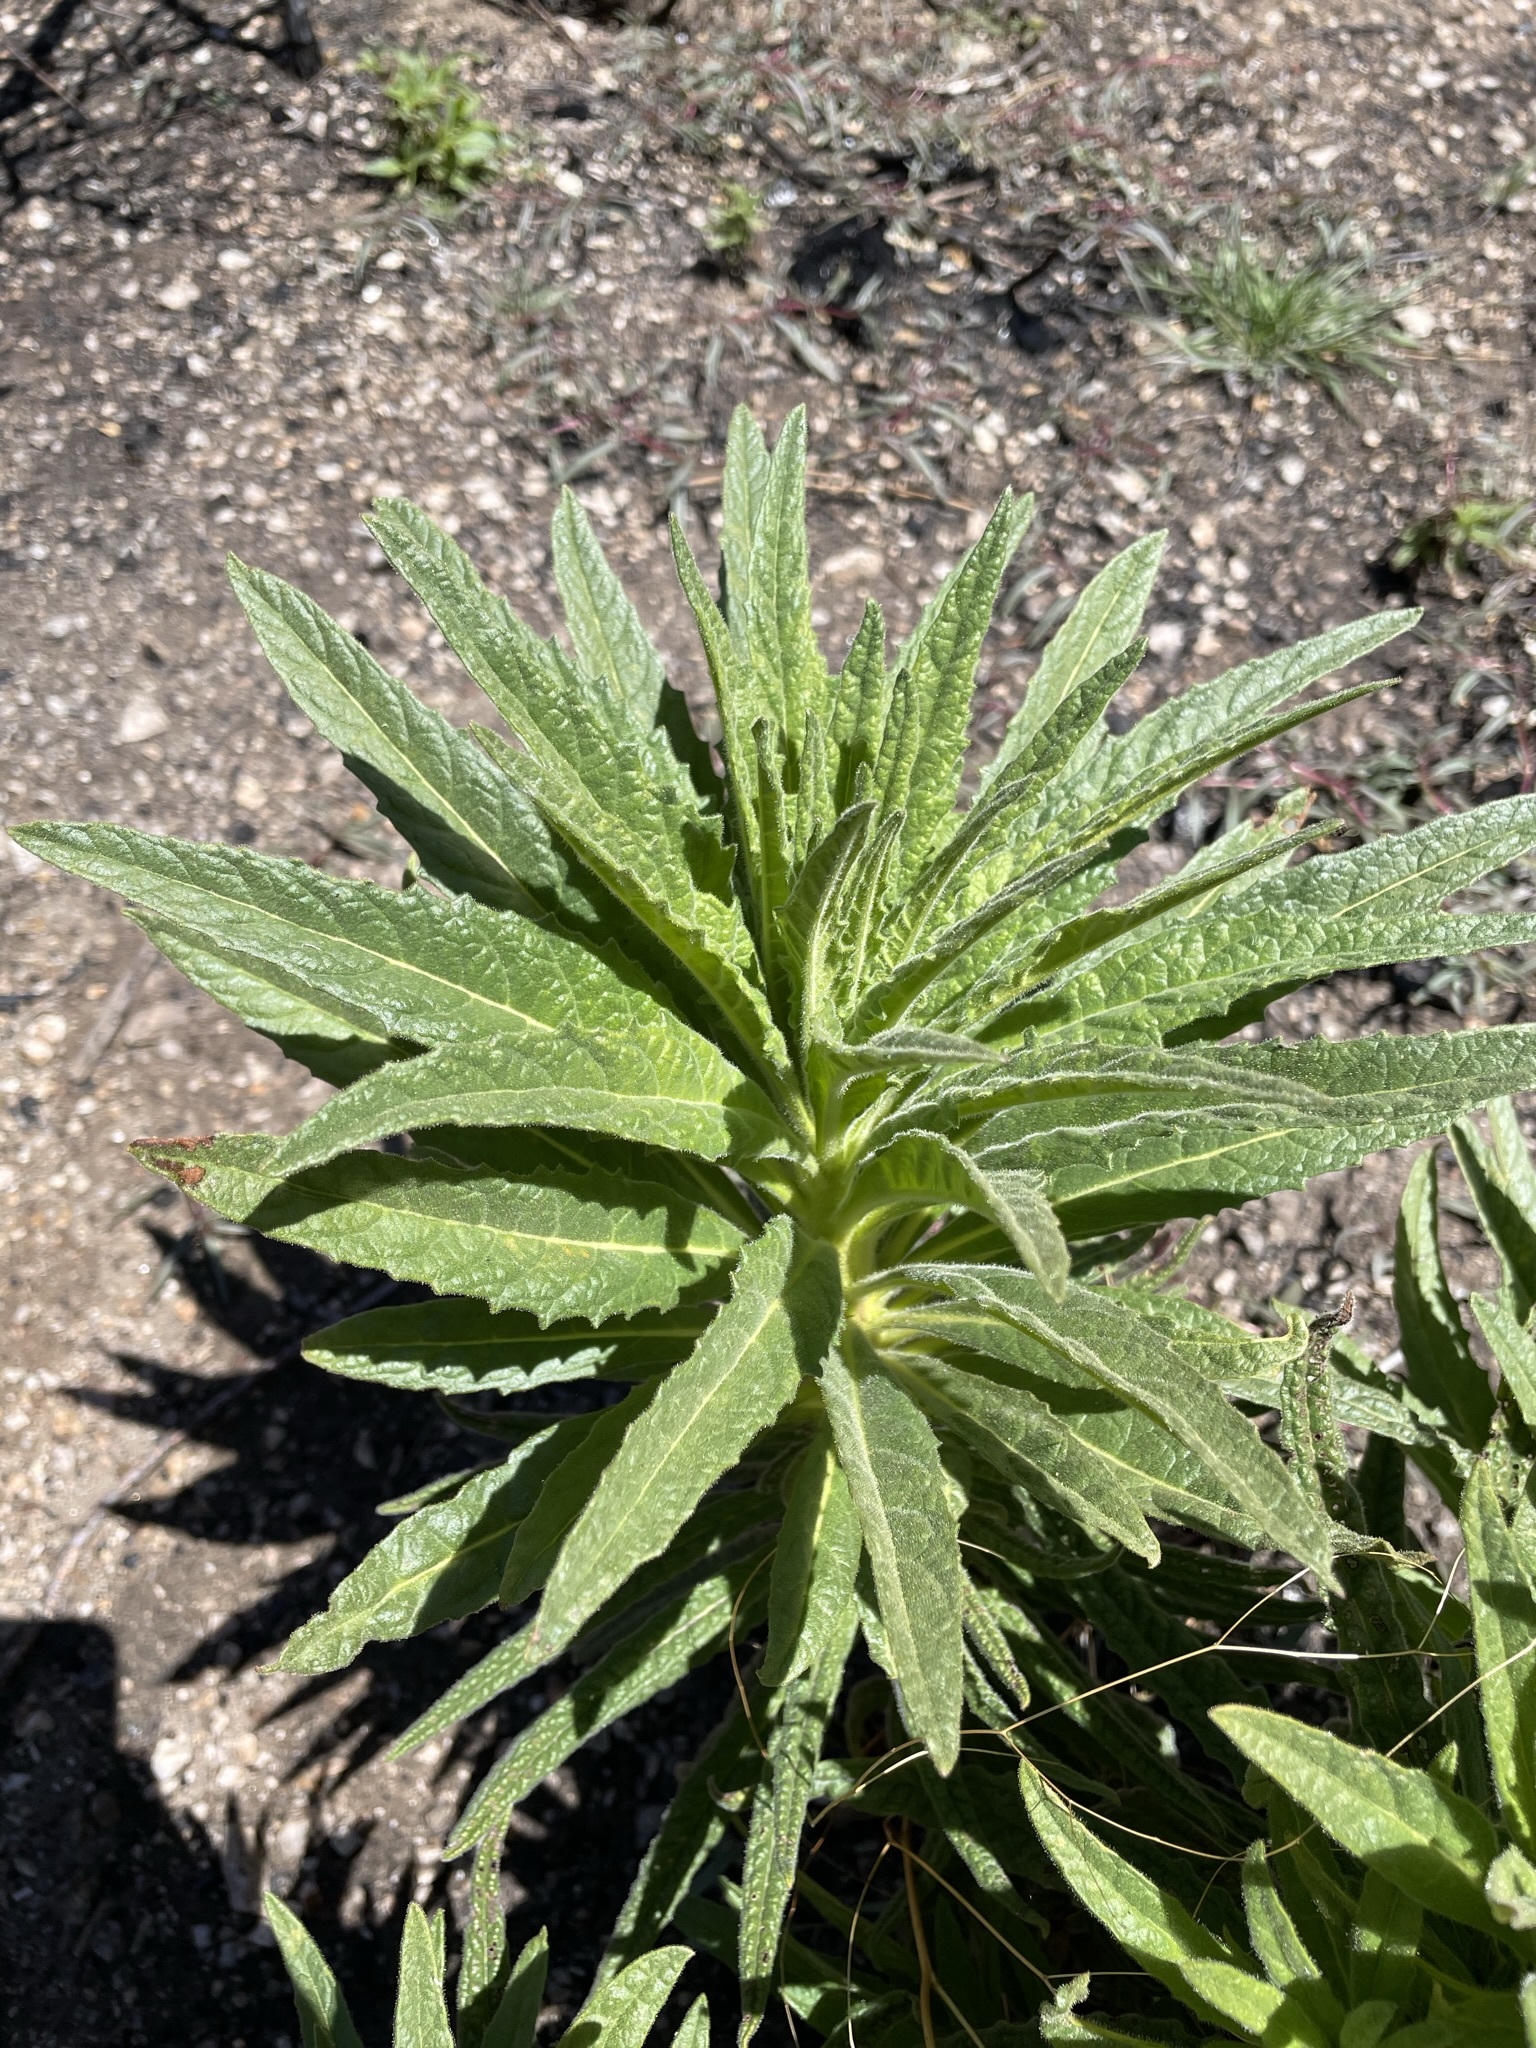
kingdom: Plantae
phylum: Tracheophyta
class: Magnoliopsida
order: Boraginales
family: Namaceae
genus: Turricula
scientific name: Turricula parryi
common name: Poodle-dog-bush
